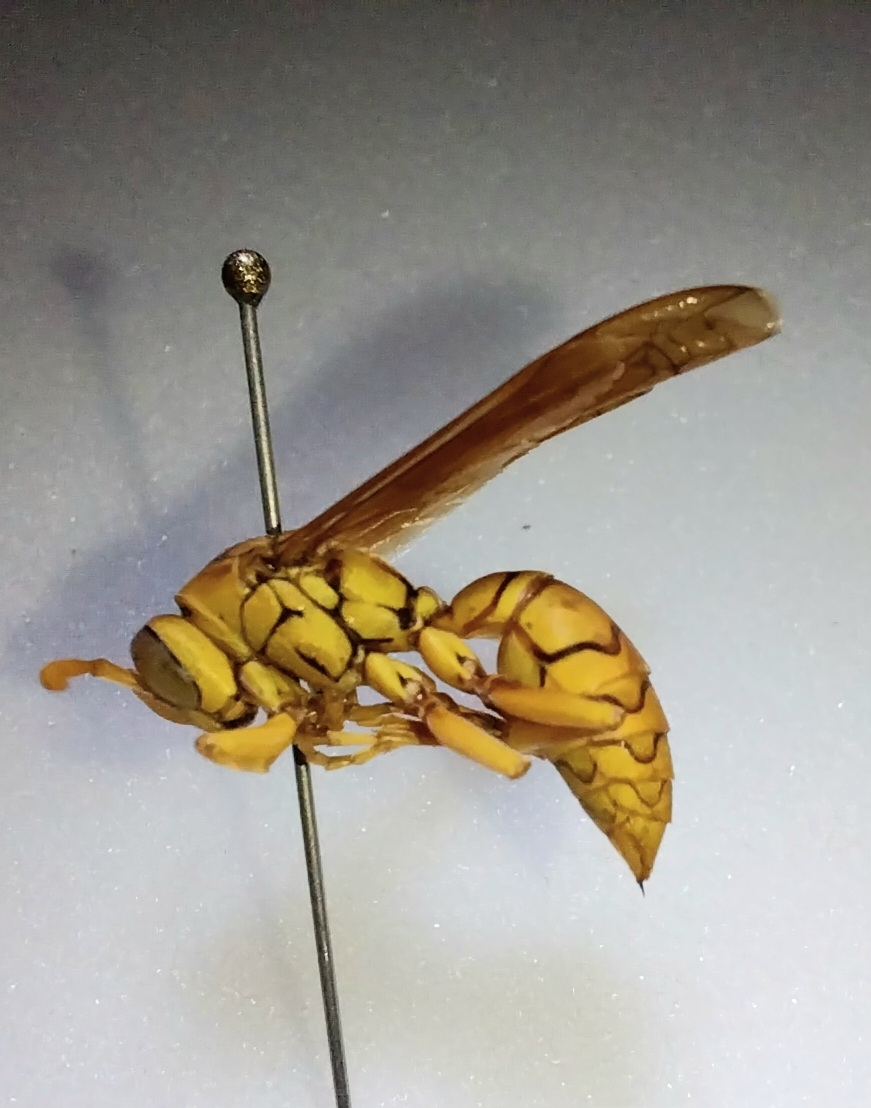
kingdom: Animalia
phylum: Arthropoda
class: Insecta
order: Hymenoptera
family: Eumenidae
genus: Polistes
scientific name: Polistes olivaceus
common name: Paper wasp
